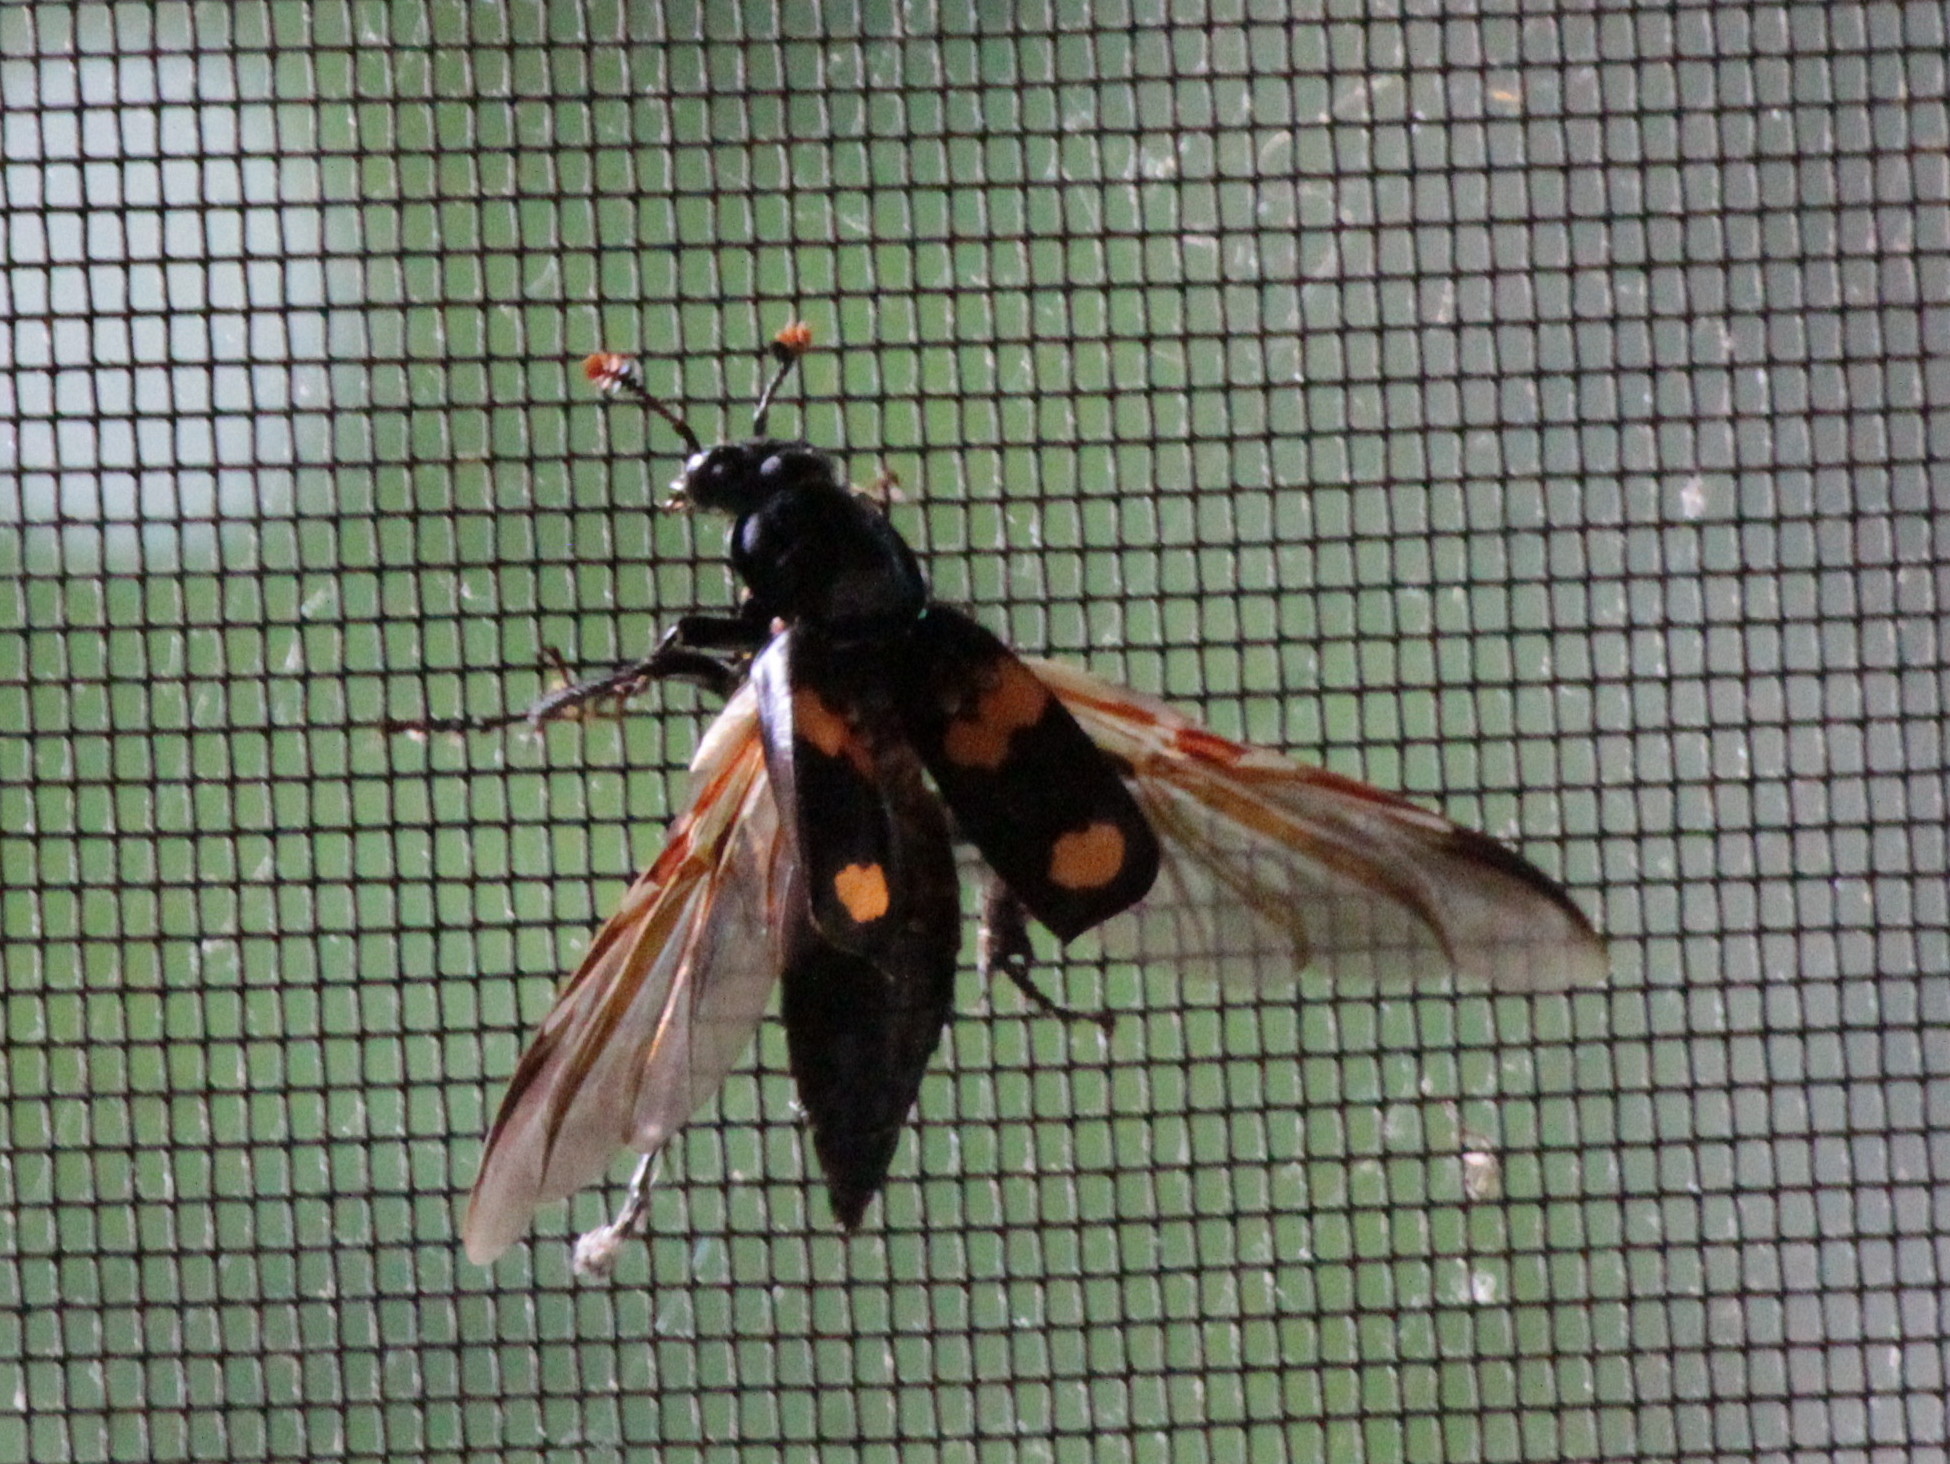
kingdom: Animalia
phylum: Arthropoda
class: Insecta
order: Coleoptera
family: Staphylinidae
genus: Nicrophorus
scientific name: Nicrophorus orbicollis
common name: Roundneck sexton beetle
